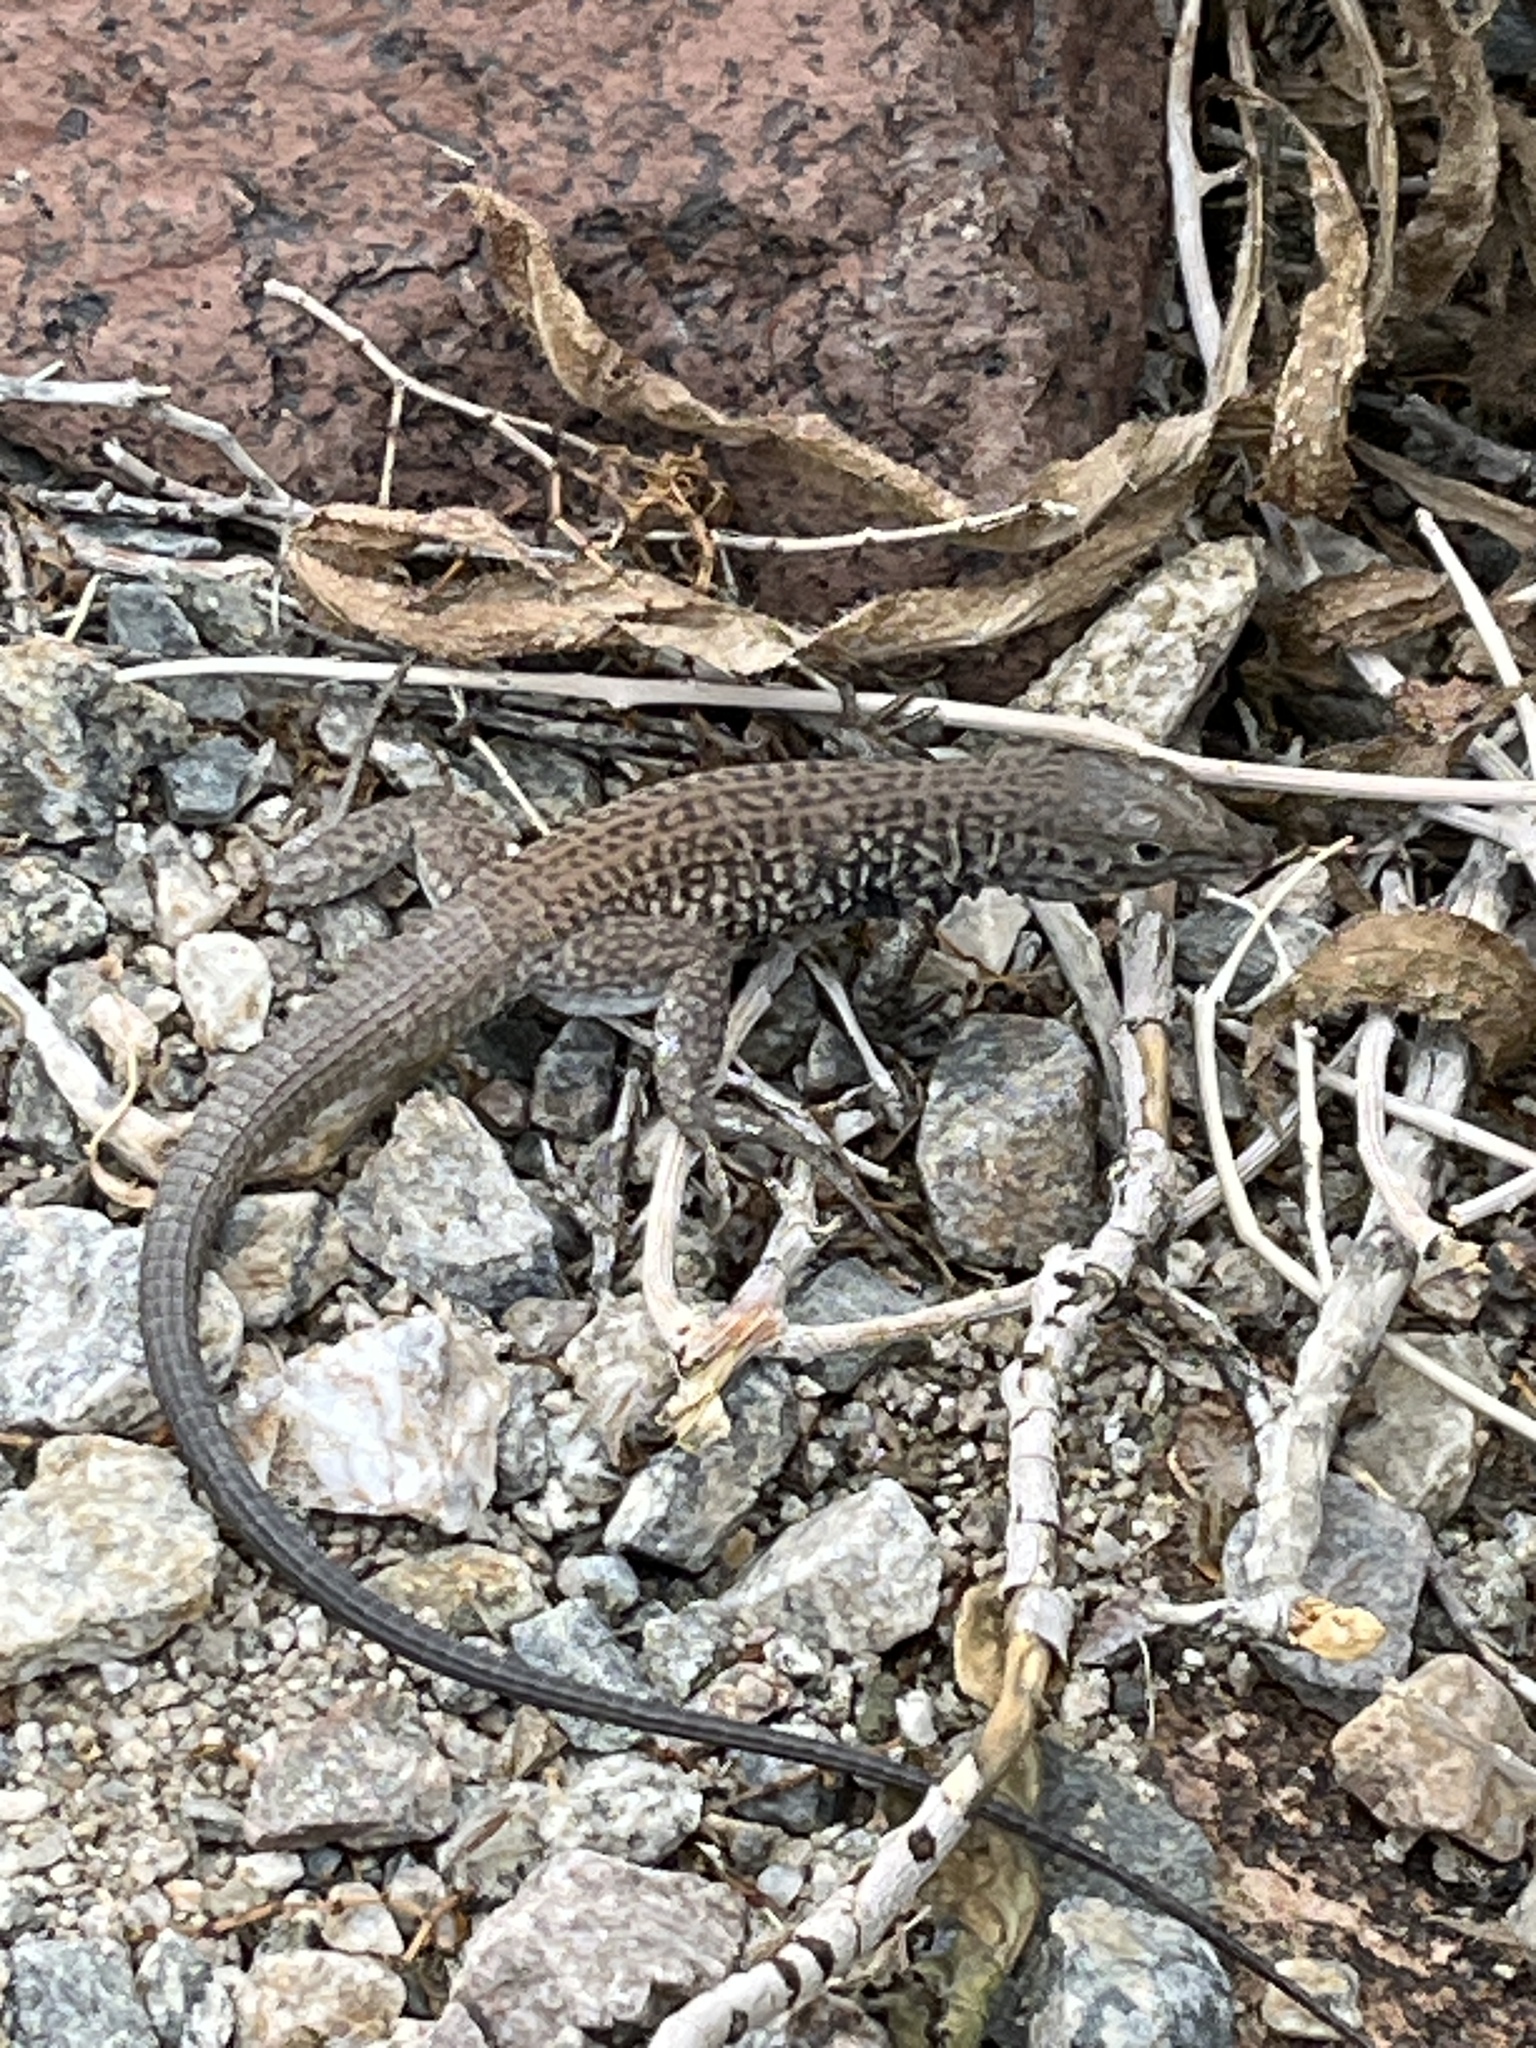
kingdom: Animalia
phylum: Chordata
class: Squamata
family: Teiidae
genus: Aspidoscelis
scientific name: Aspidoscelis tigris
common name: Tiger whiptail
